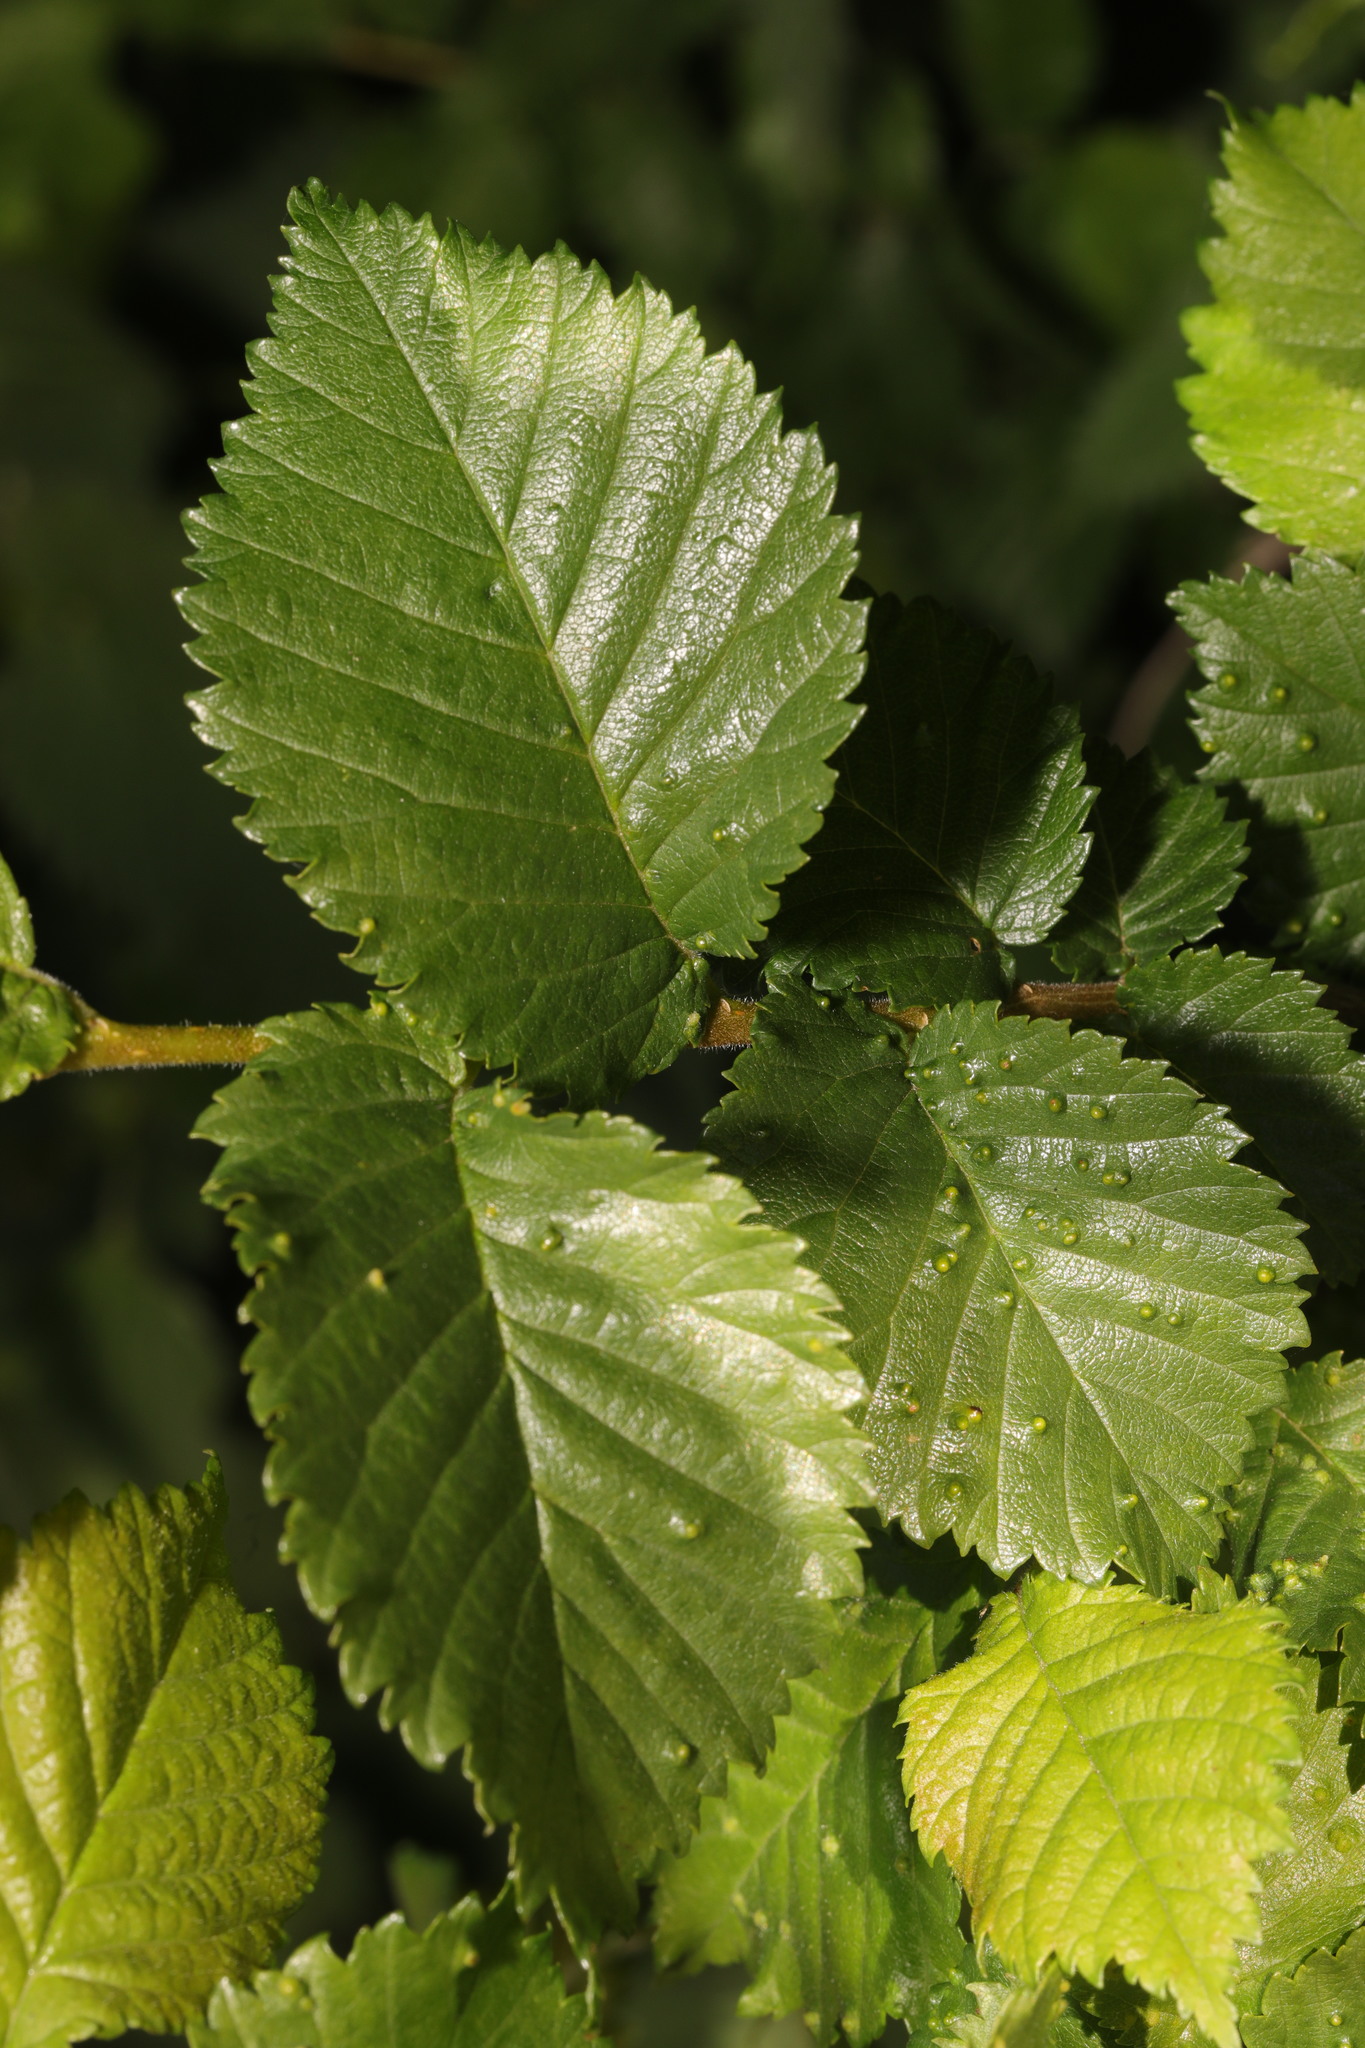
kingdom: Plantae
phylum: Tracheophyta
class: Magnoliopsida
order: Rosales
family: Ulmaceae
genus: Ulmus
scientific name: Ulmus minor
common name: Small-leaved elm
